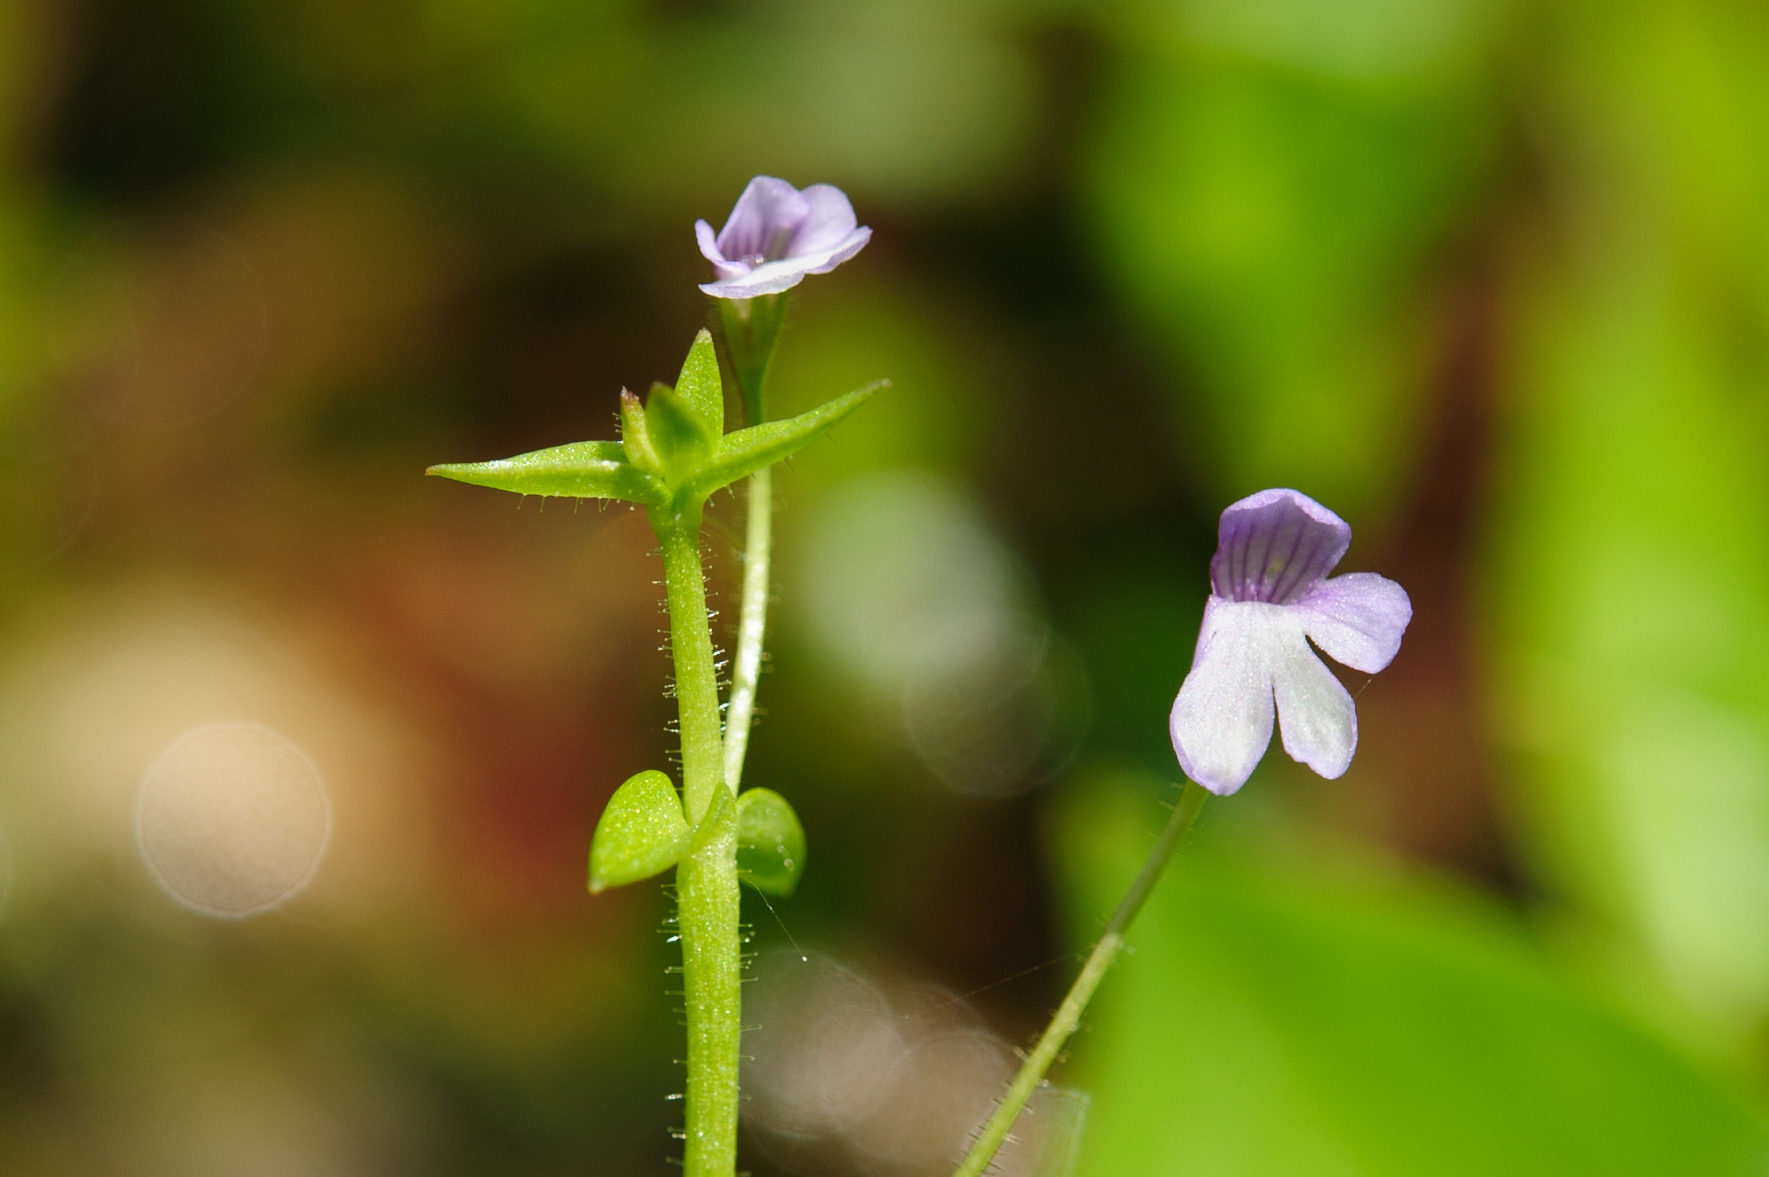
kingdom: Plantae
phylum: Tracheophyta
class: Magnoliopsida
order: Lamiales
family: Plantaginaceae
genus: Deinostema
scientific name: Deinostema adenocaula
